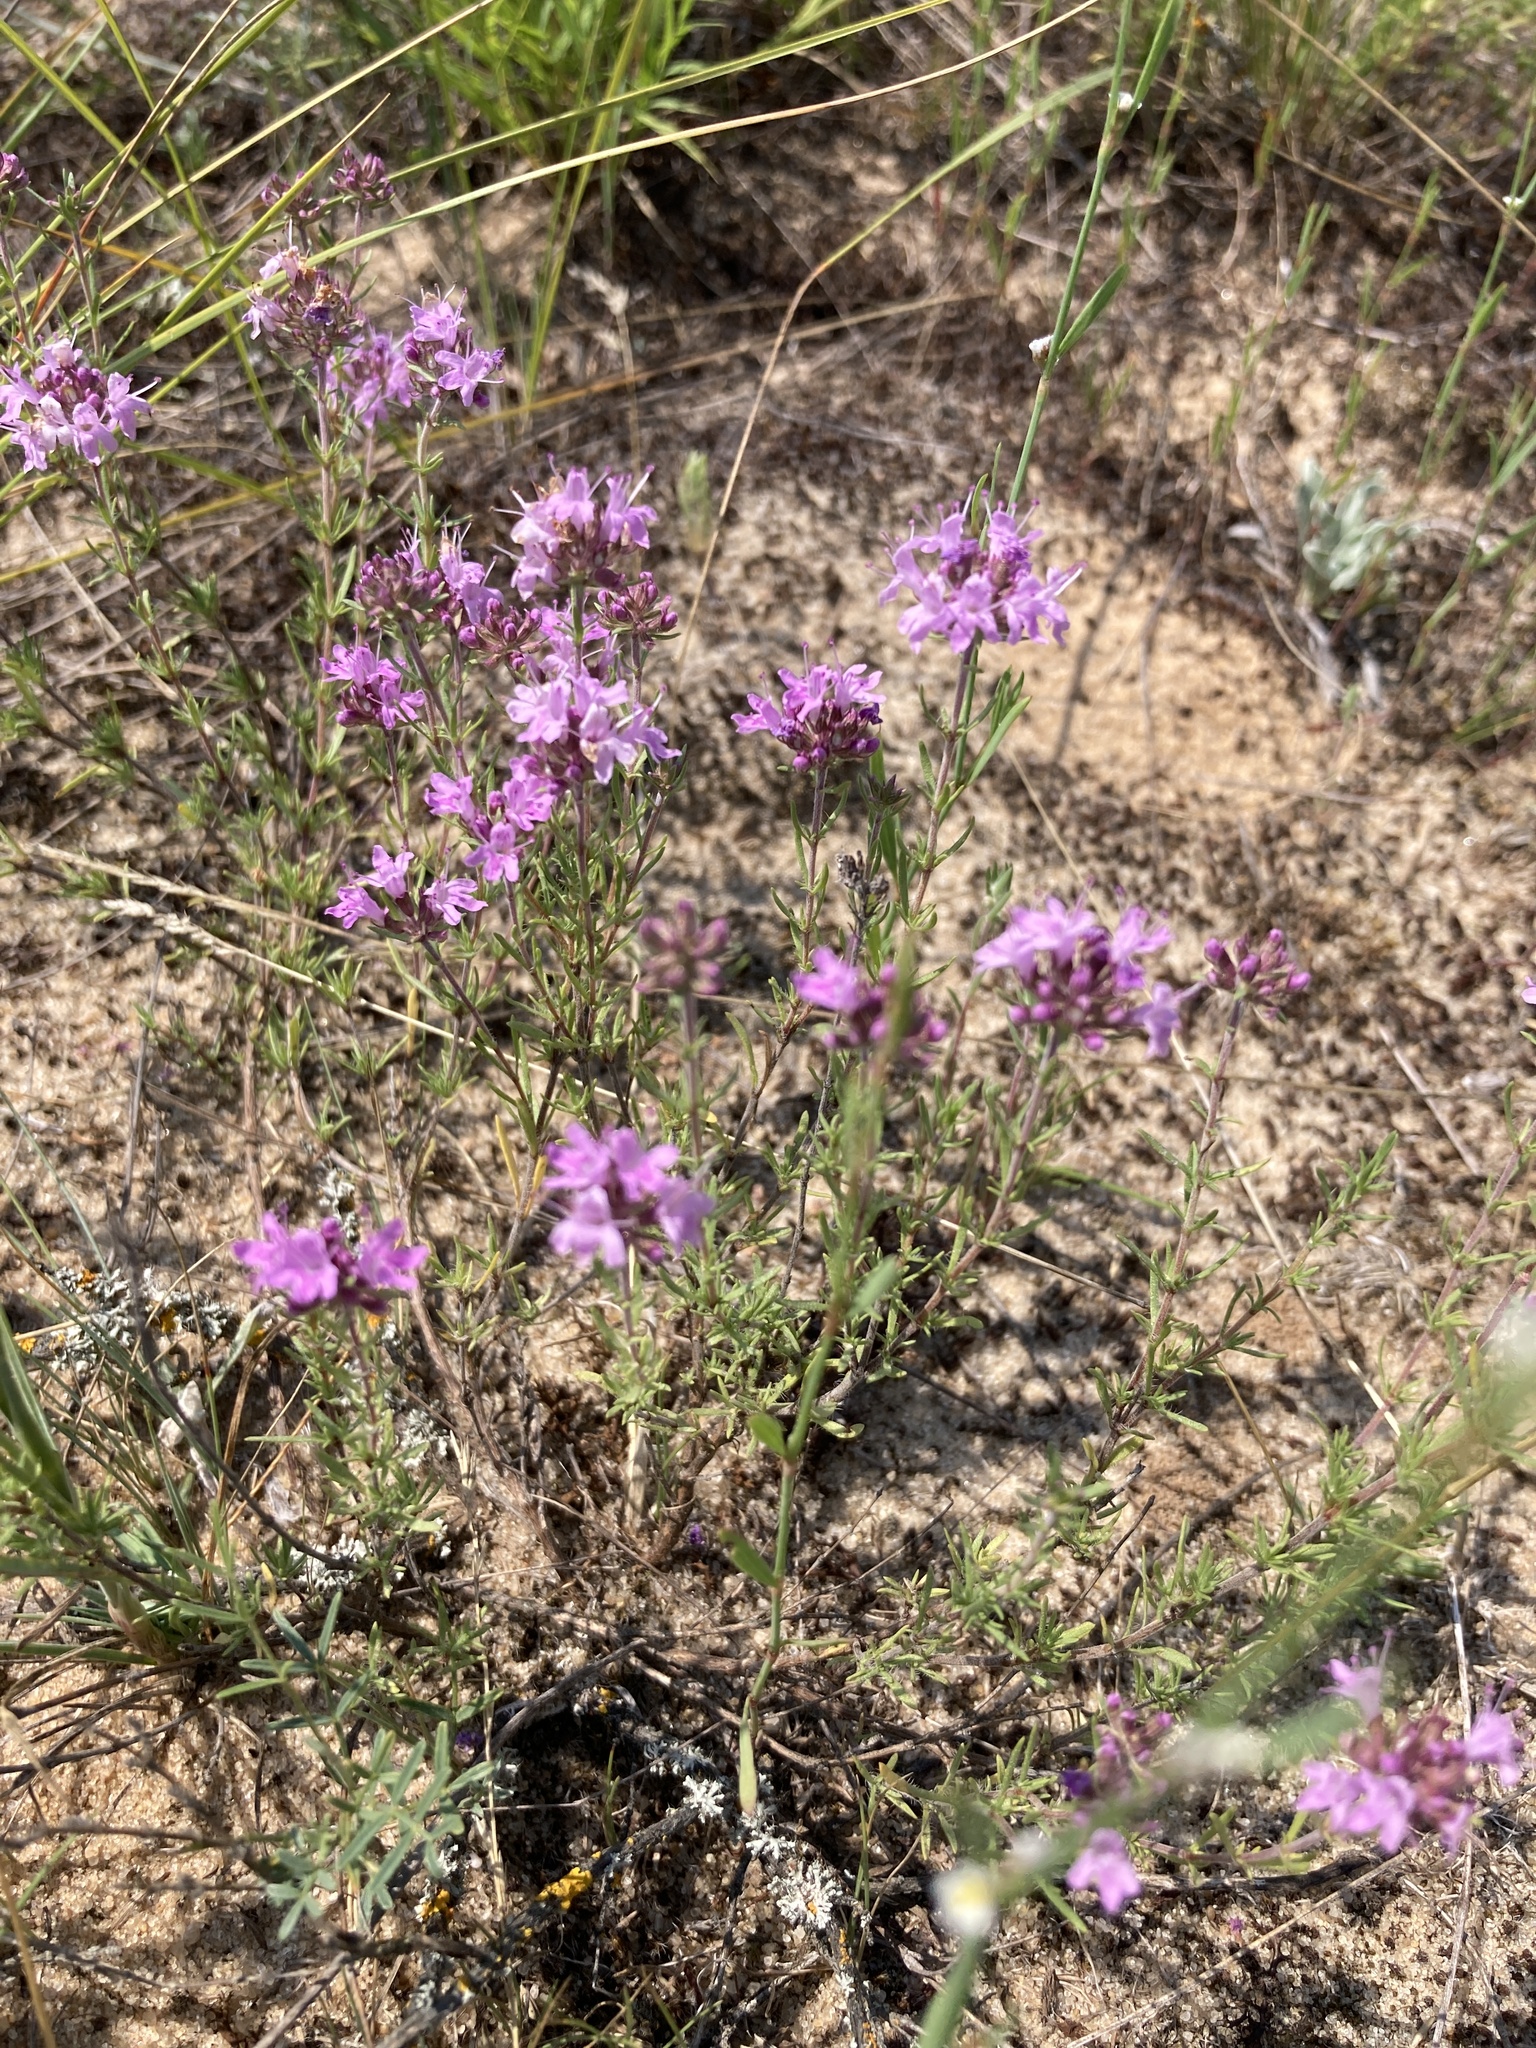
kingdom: Plantae
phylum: Tracheophyta
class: Magnoliopsida
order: Lamiales
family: Lamiaceae
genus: Thymus
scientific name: Thymus pallasianus
